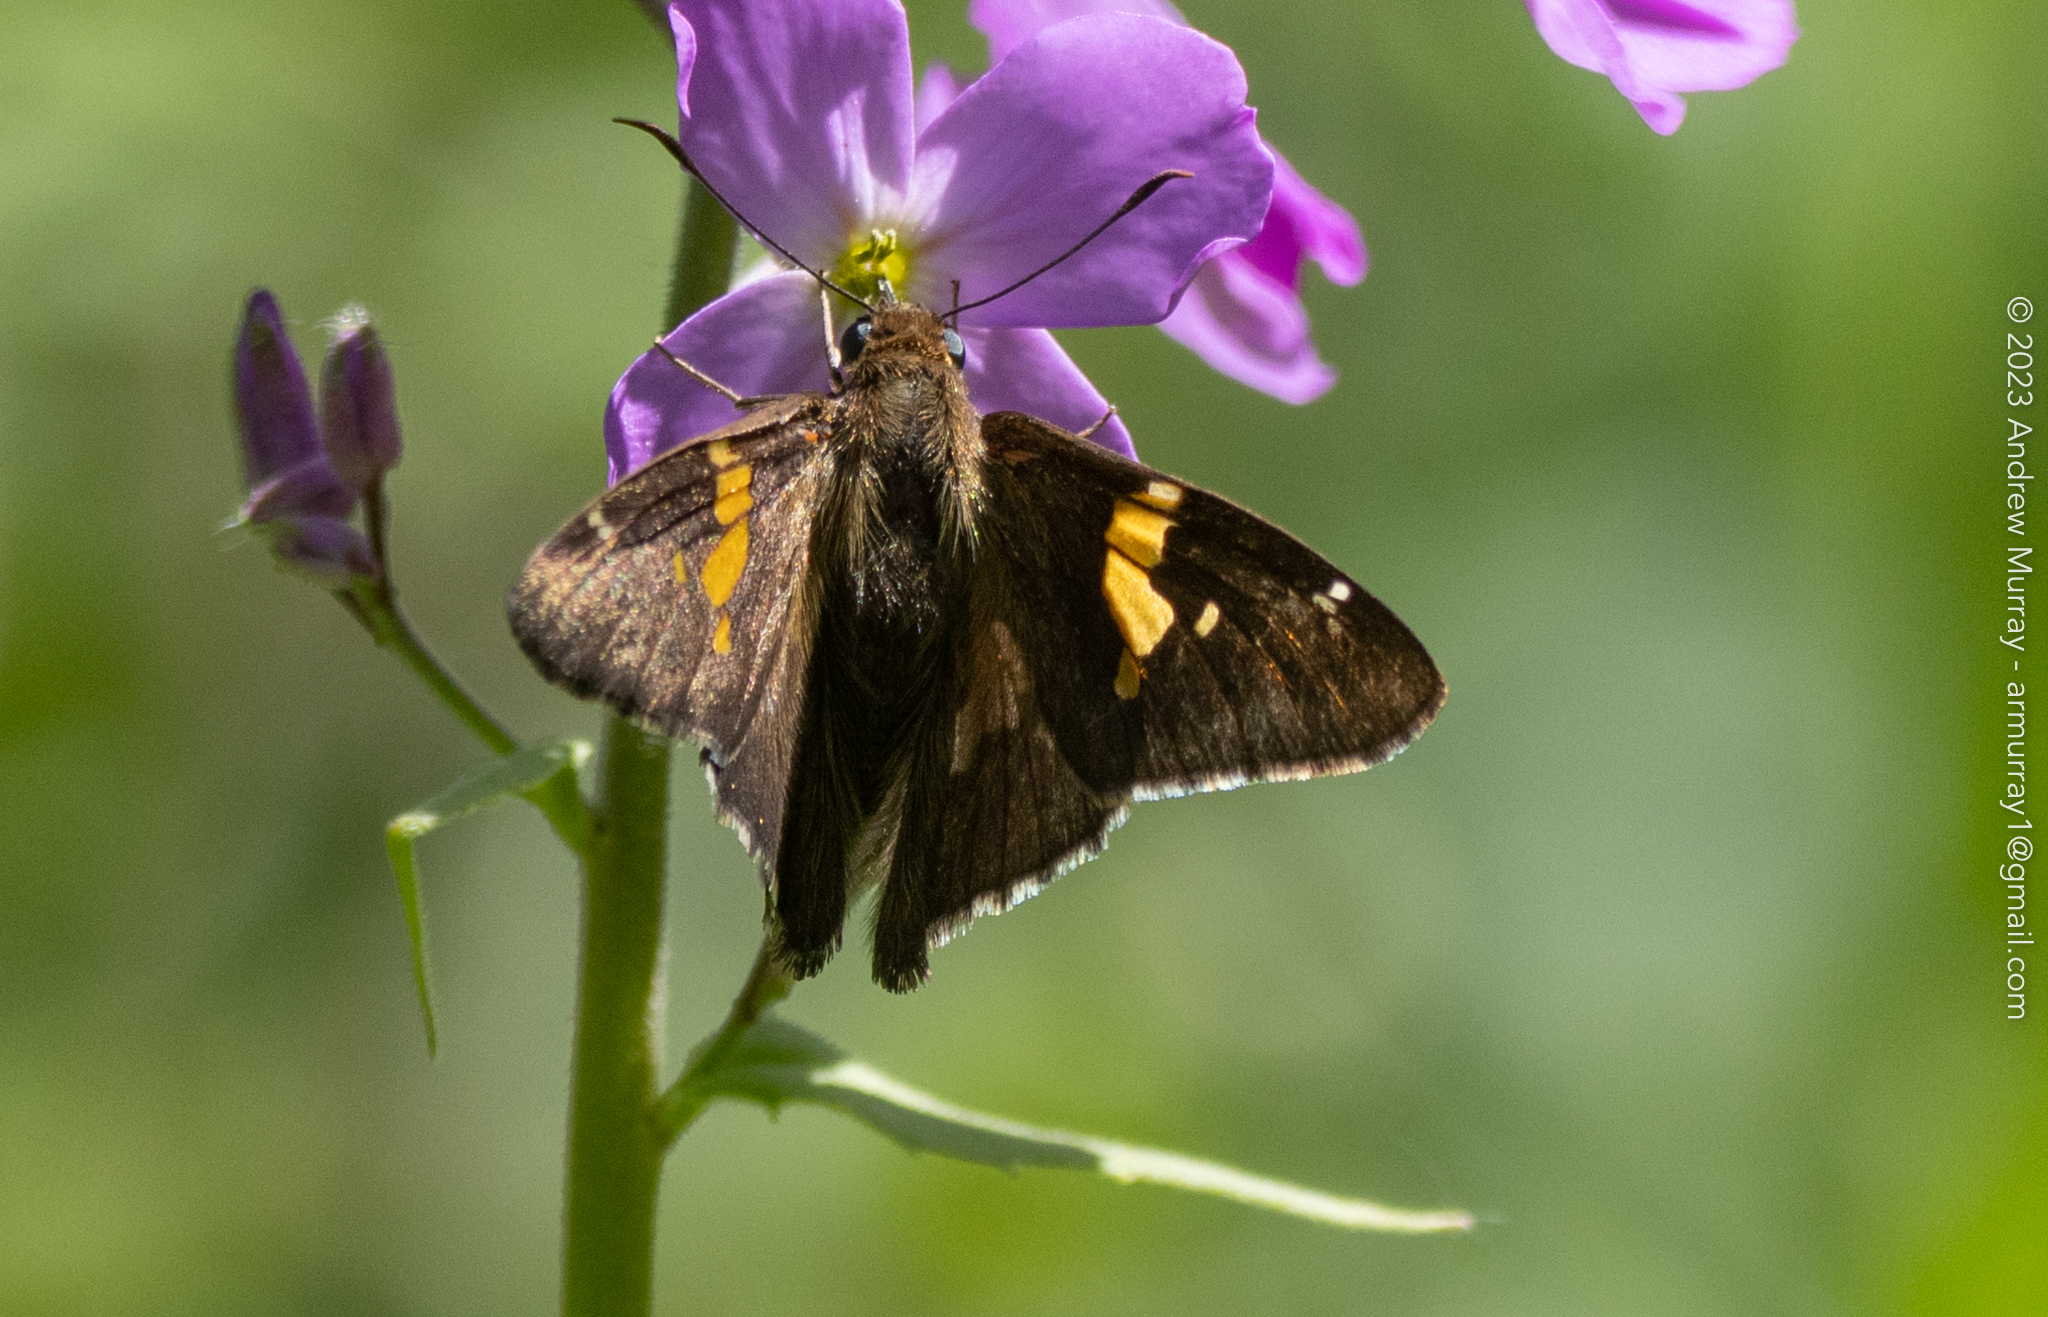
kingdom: Animalia
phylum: Arthropoda
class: Insecta
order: Lepidoptera
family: Hesperiidae
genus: Epargyreus
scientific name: Epargyreus clarus
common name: Silver-spotted skipper
